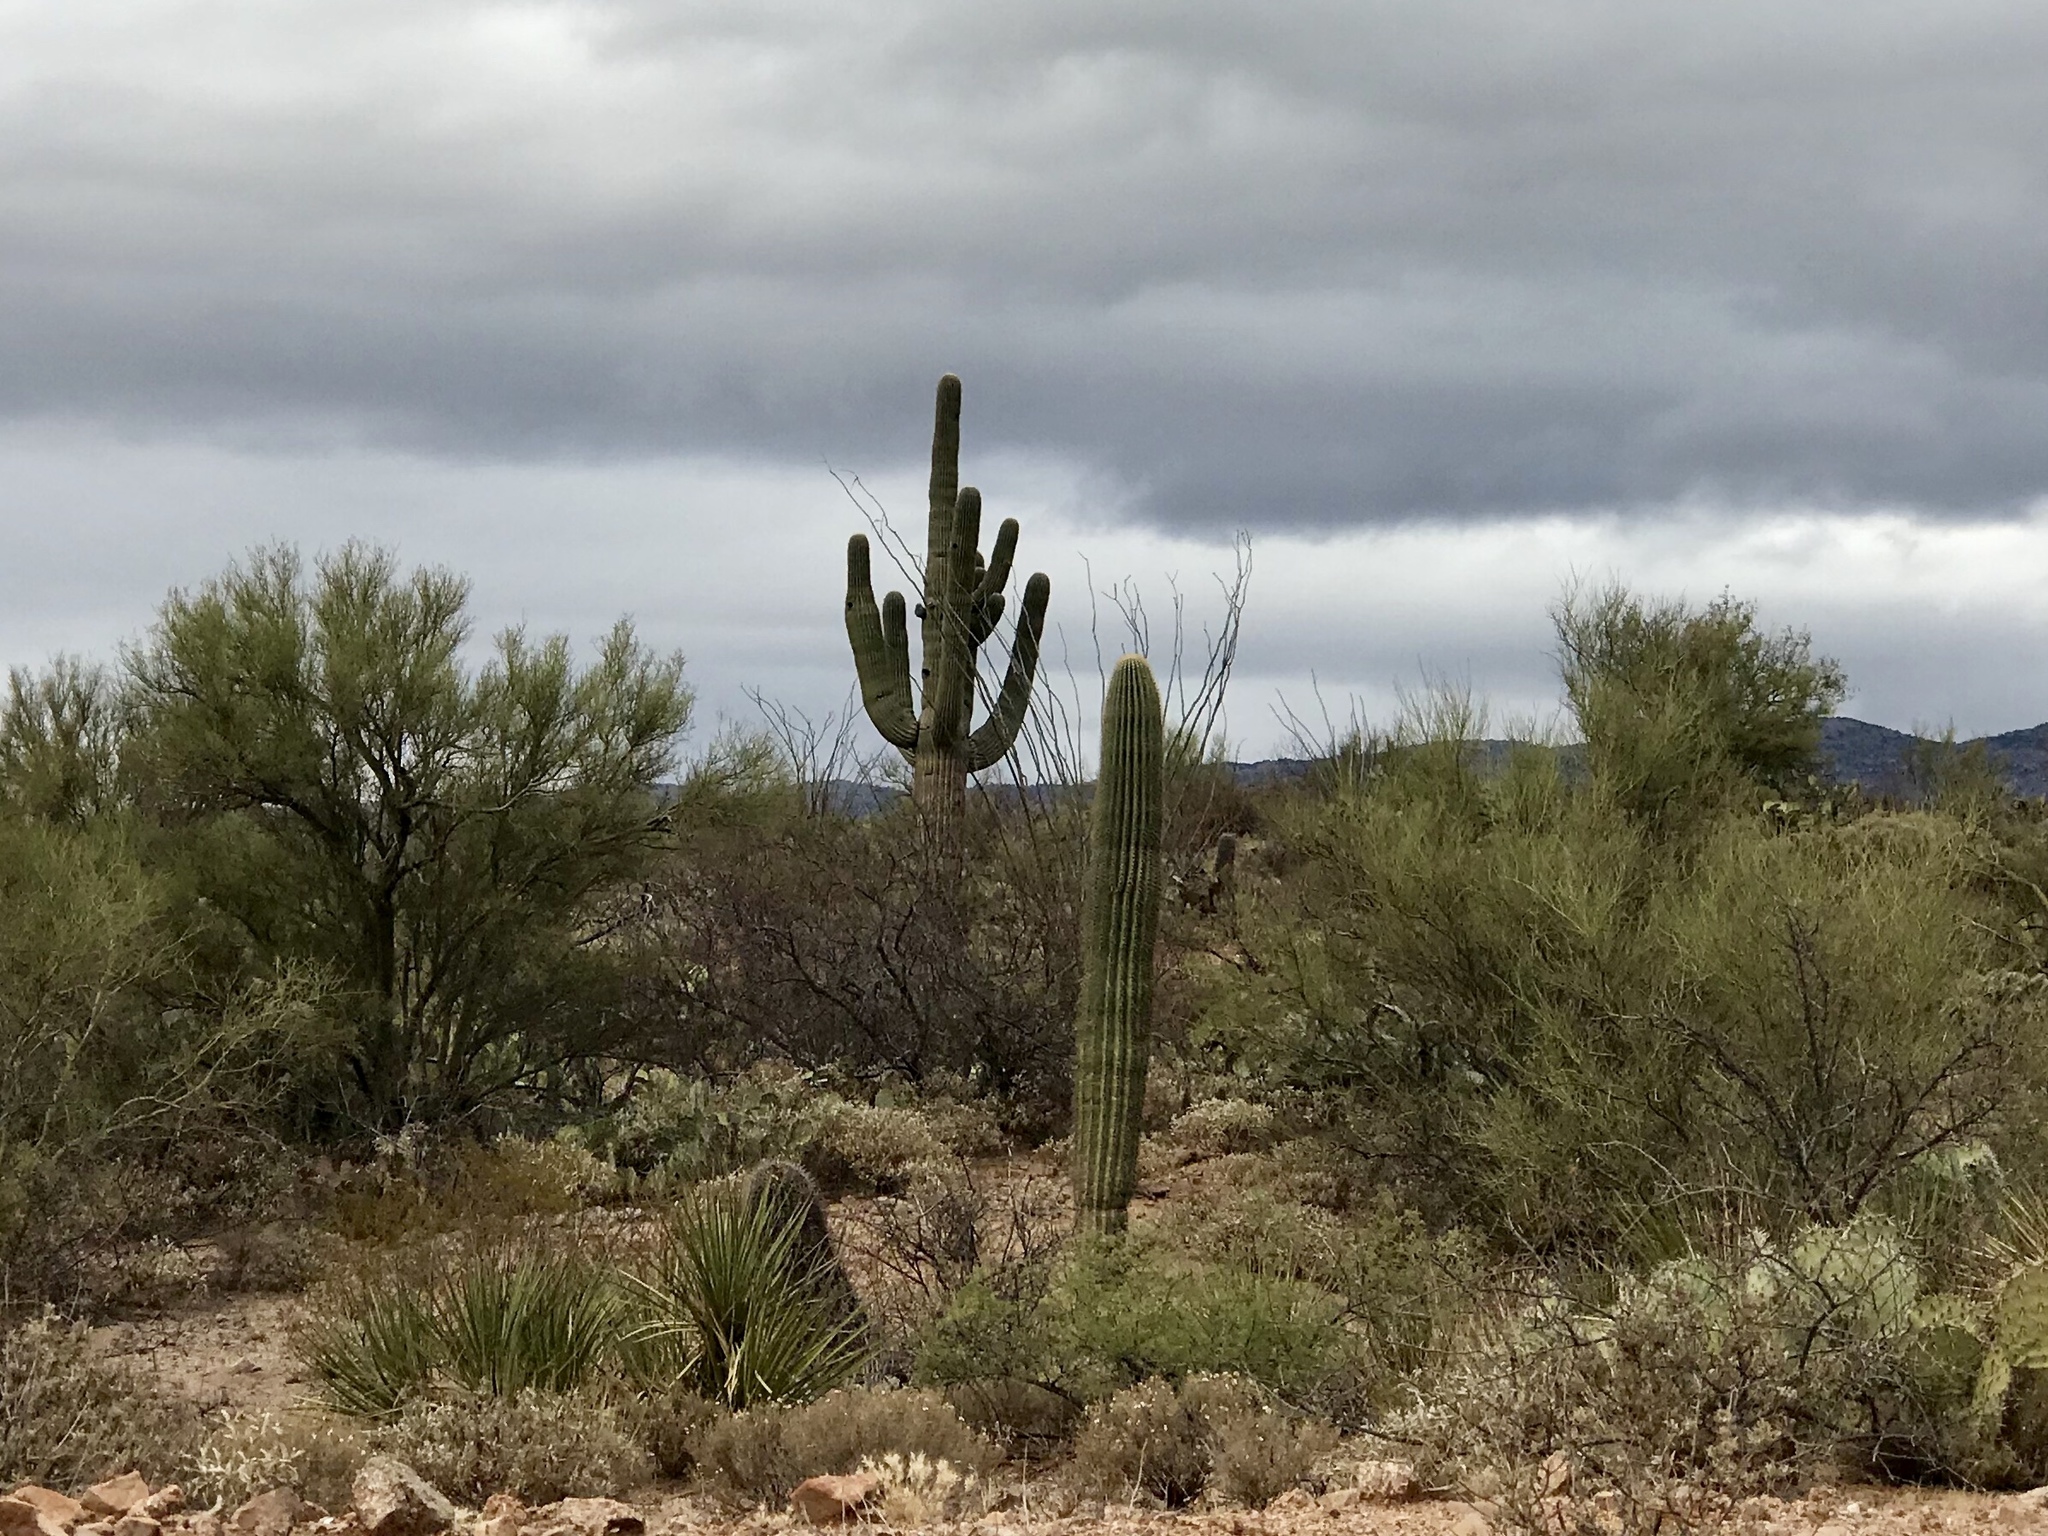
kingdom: Plantae
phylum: Tracheophyta
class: Magnoliopsida
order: Caryophyllales
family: Cactaceae
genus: Carnegiea
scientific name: Carnegiea gigantea
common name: Saguaro
